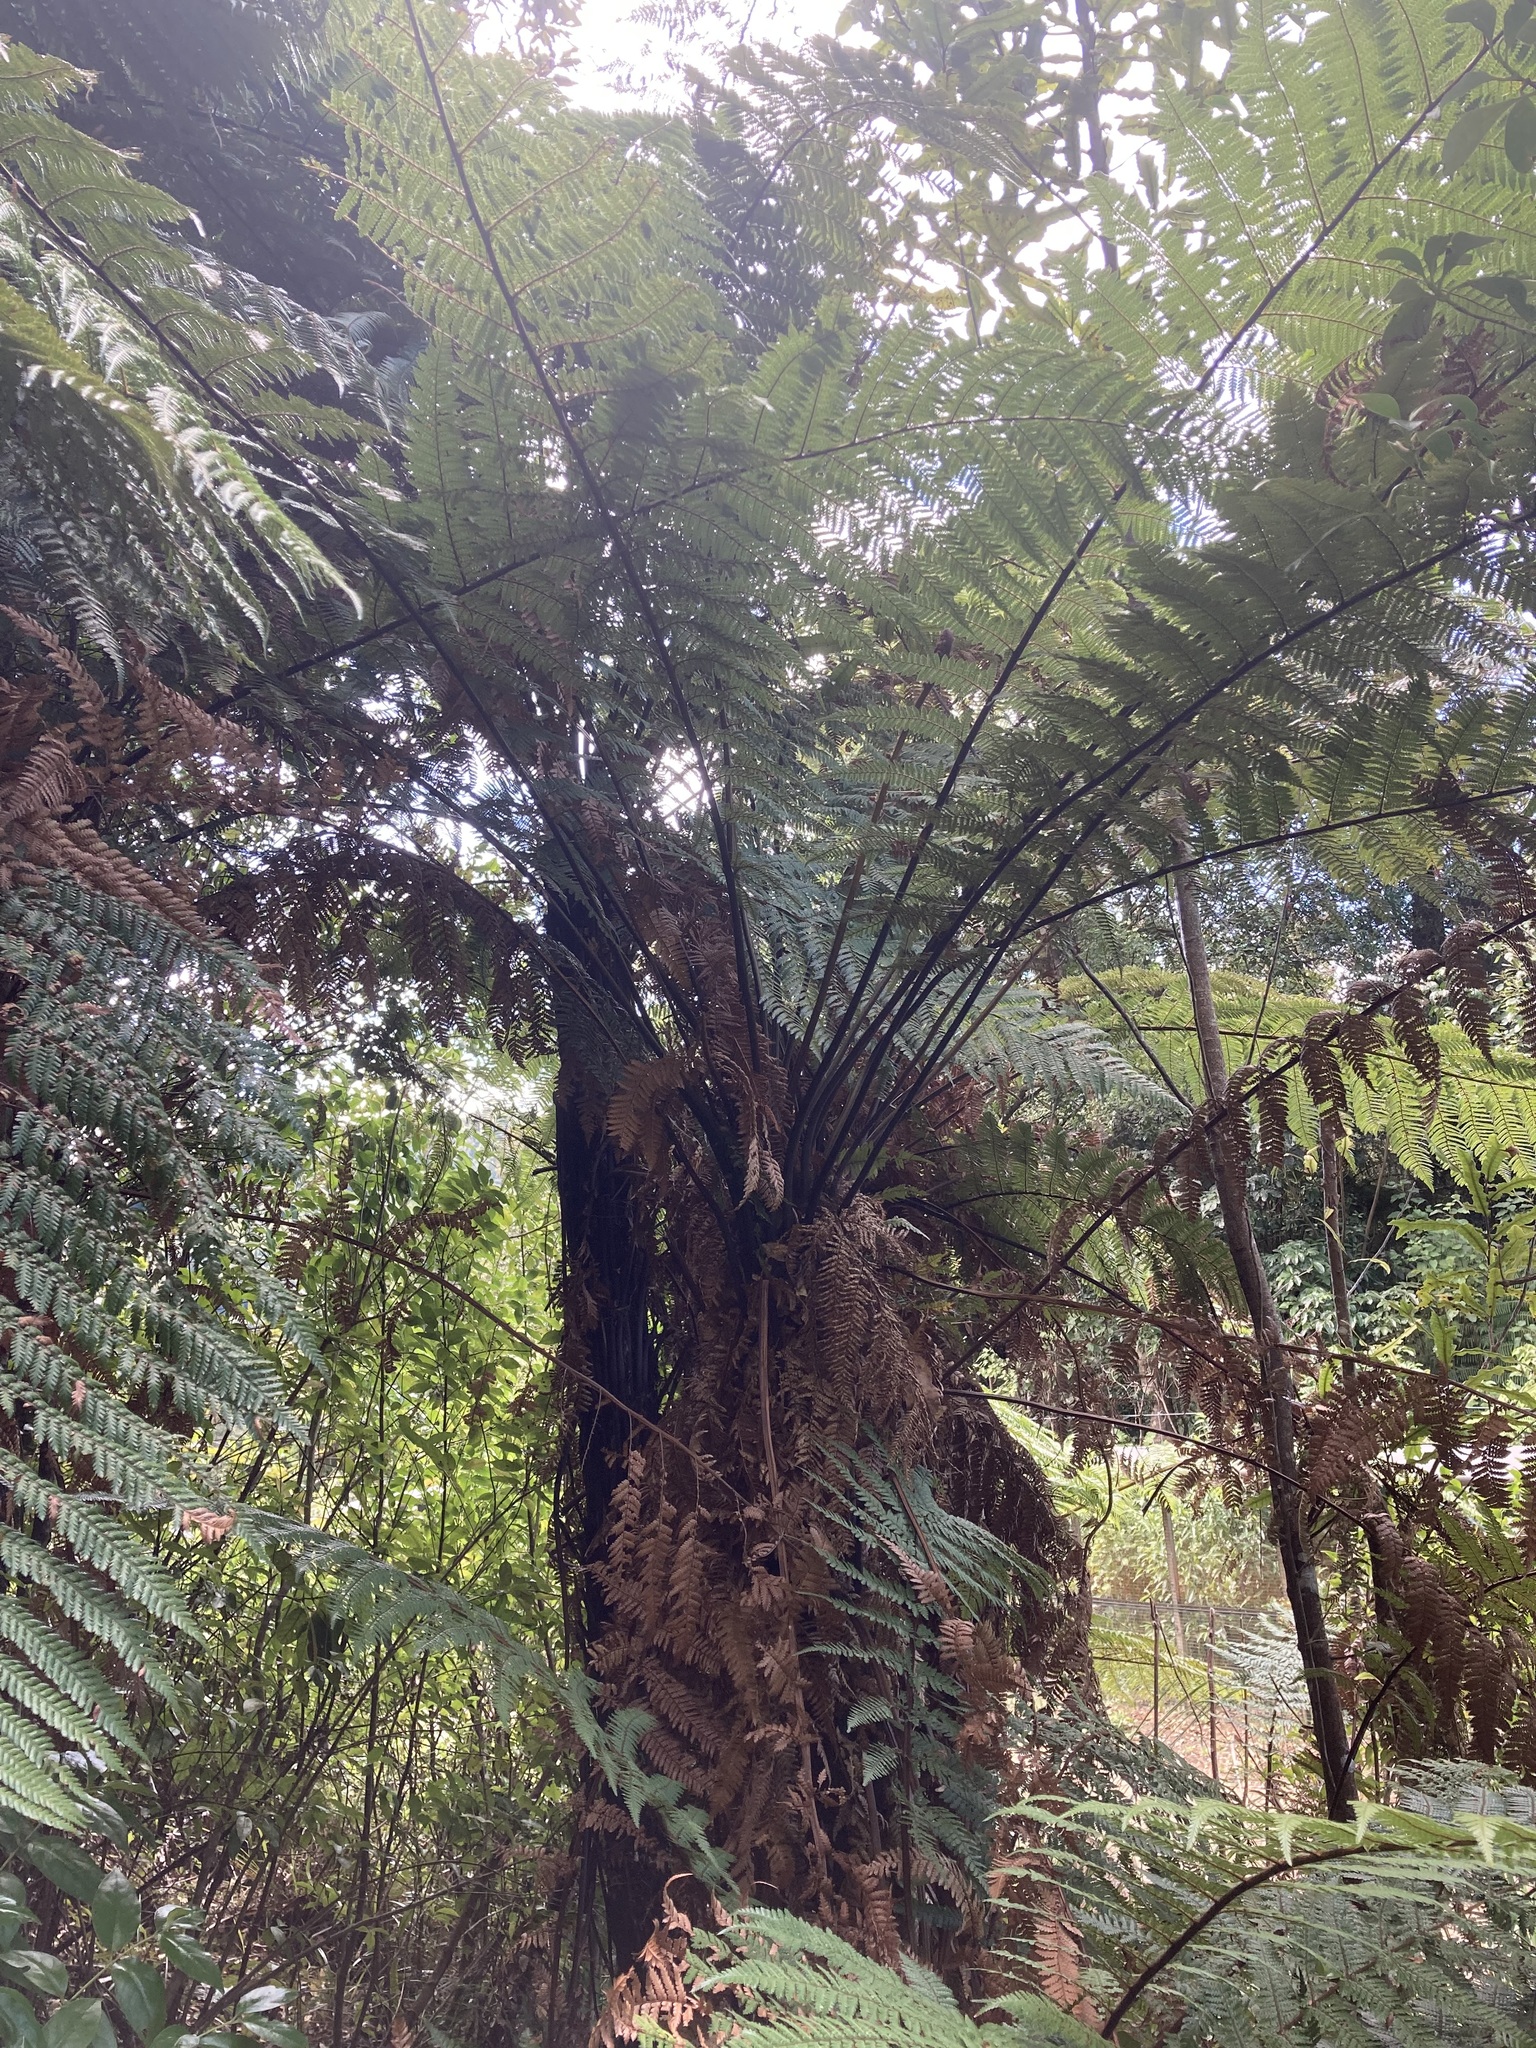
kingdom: Plantae
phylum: Tracheophyta
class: Polypodiopsida
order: Cyatheales
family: Dicksoniaceae
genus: Dicksonia
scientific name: Dicksonia squarrosa
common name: Hard treefern
